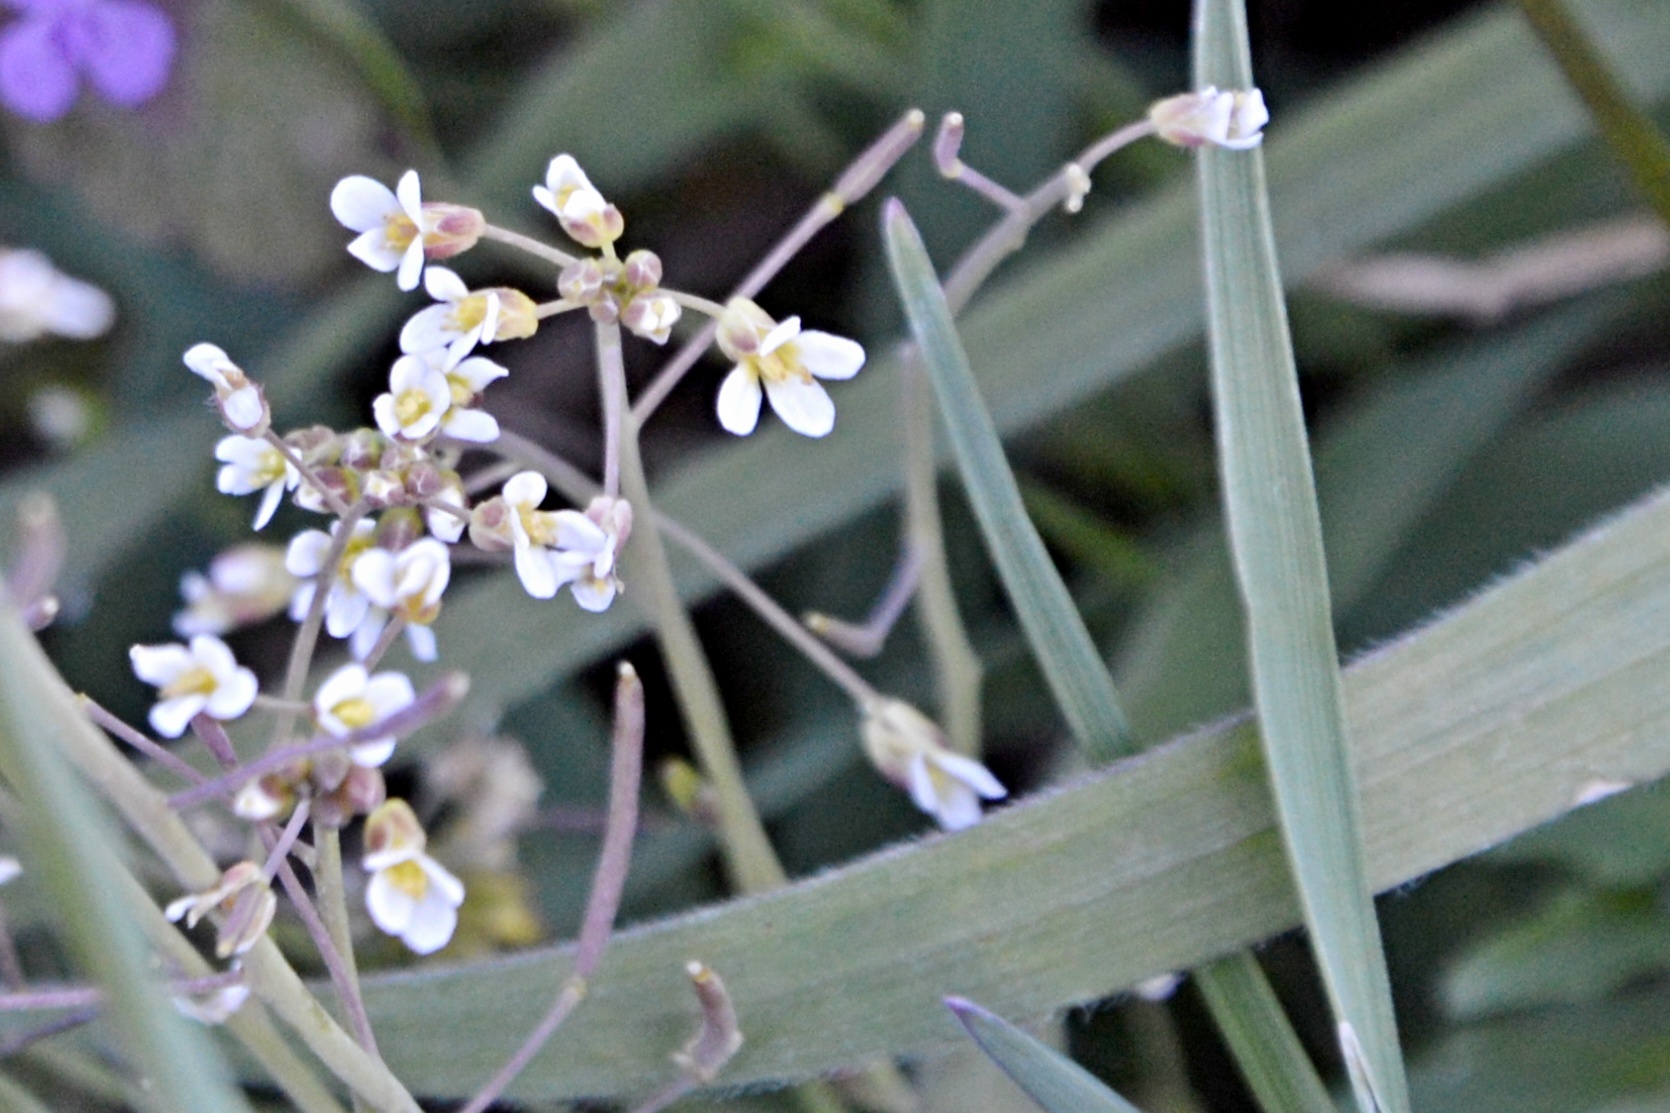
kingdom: Plantae
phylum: Tracheophyta
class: Magnoliopsida
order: Brassicales
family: Brassicaceae
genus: Arabidopsis
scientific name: Arabidopsis thaliana
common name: Thale cress
